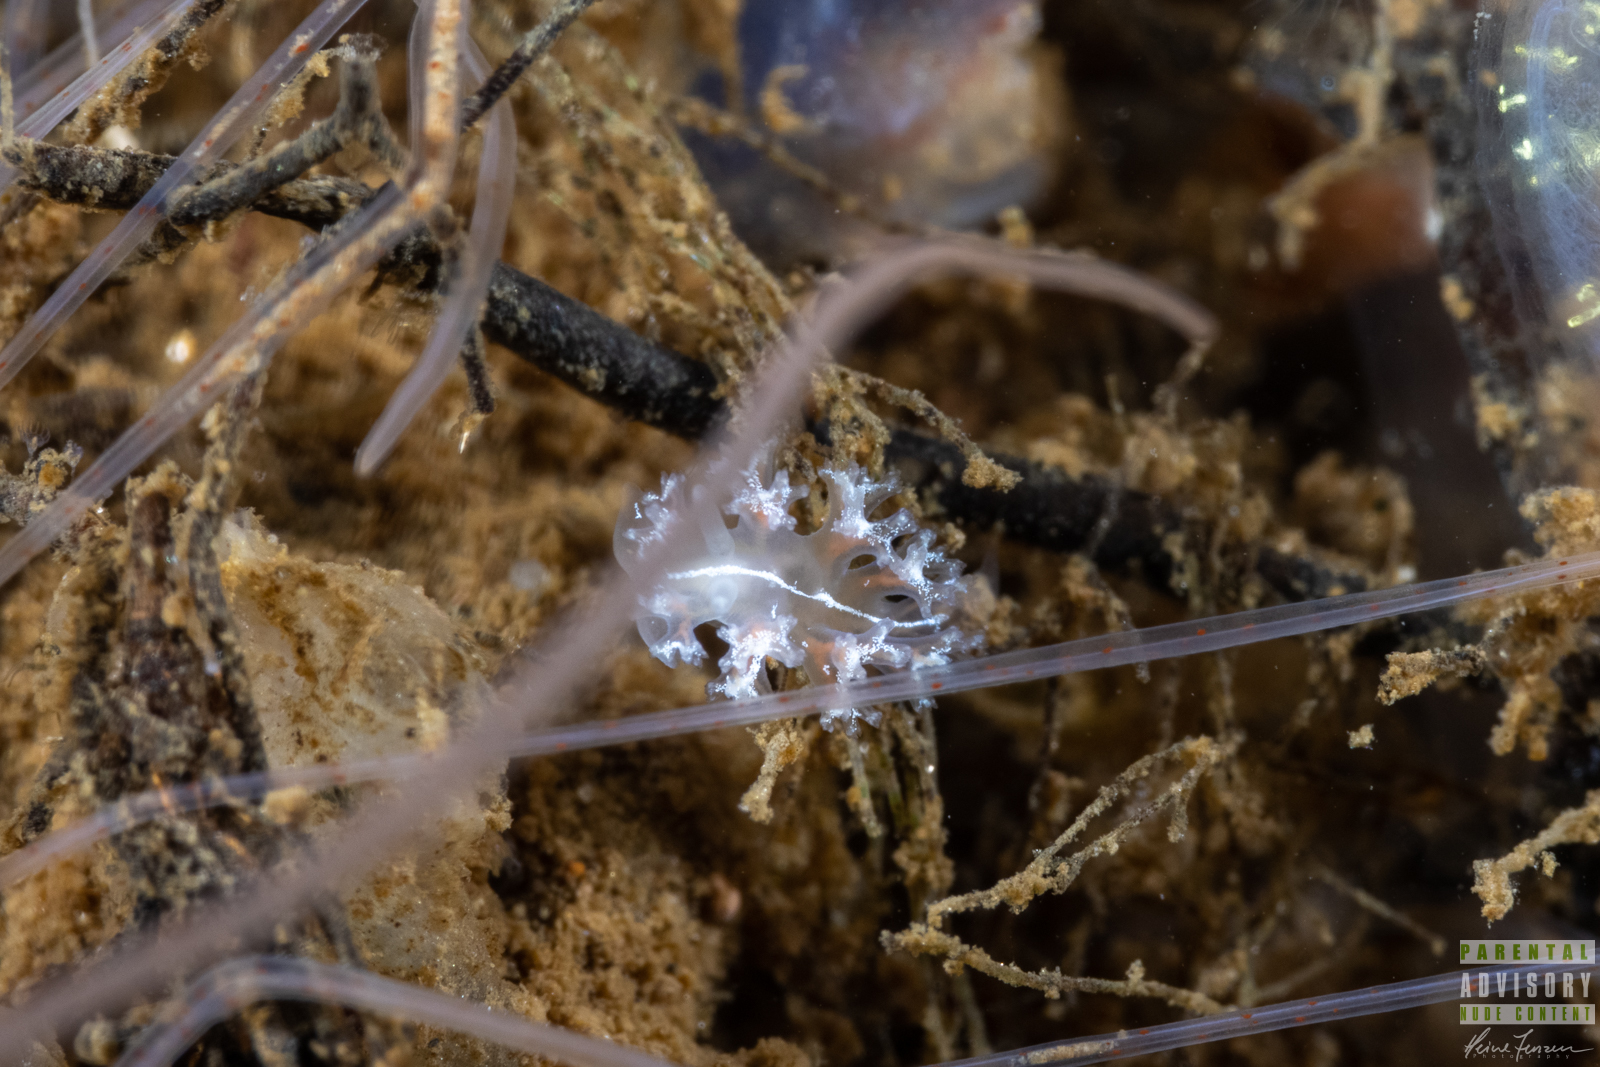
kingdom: Animalia
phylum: Mollusca
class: Gastropoda
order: Nudibranchia
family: Heroidae
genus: Hero
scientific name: Hero formosa
